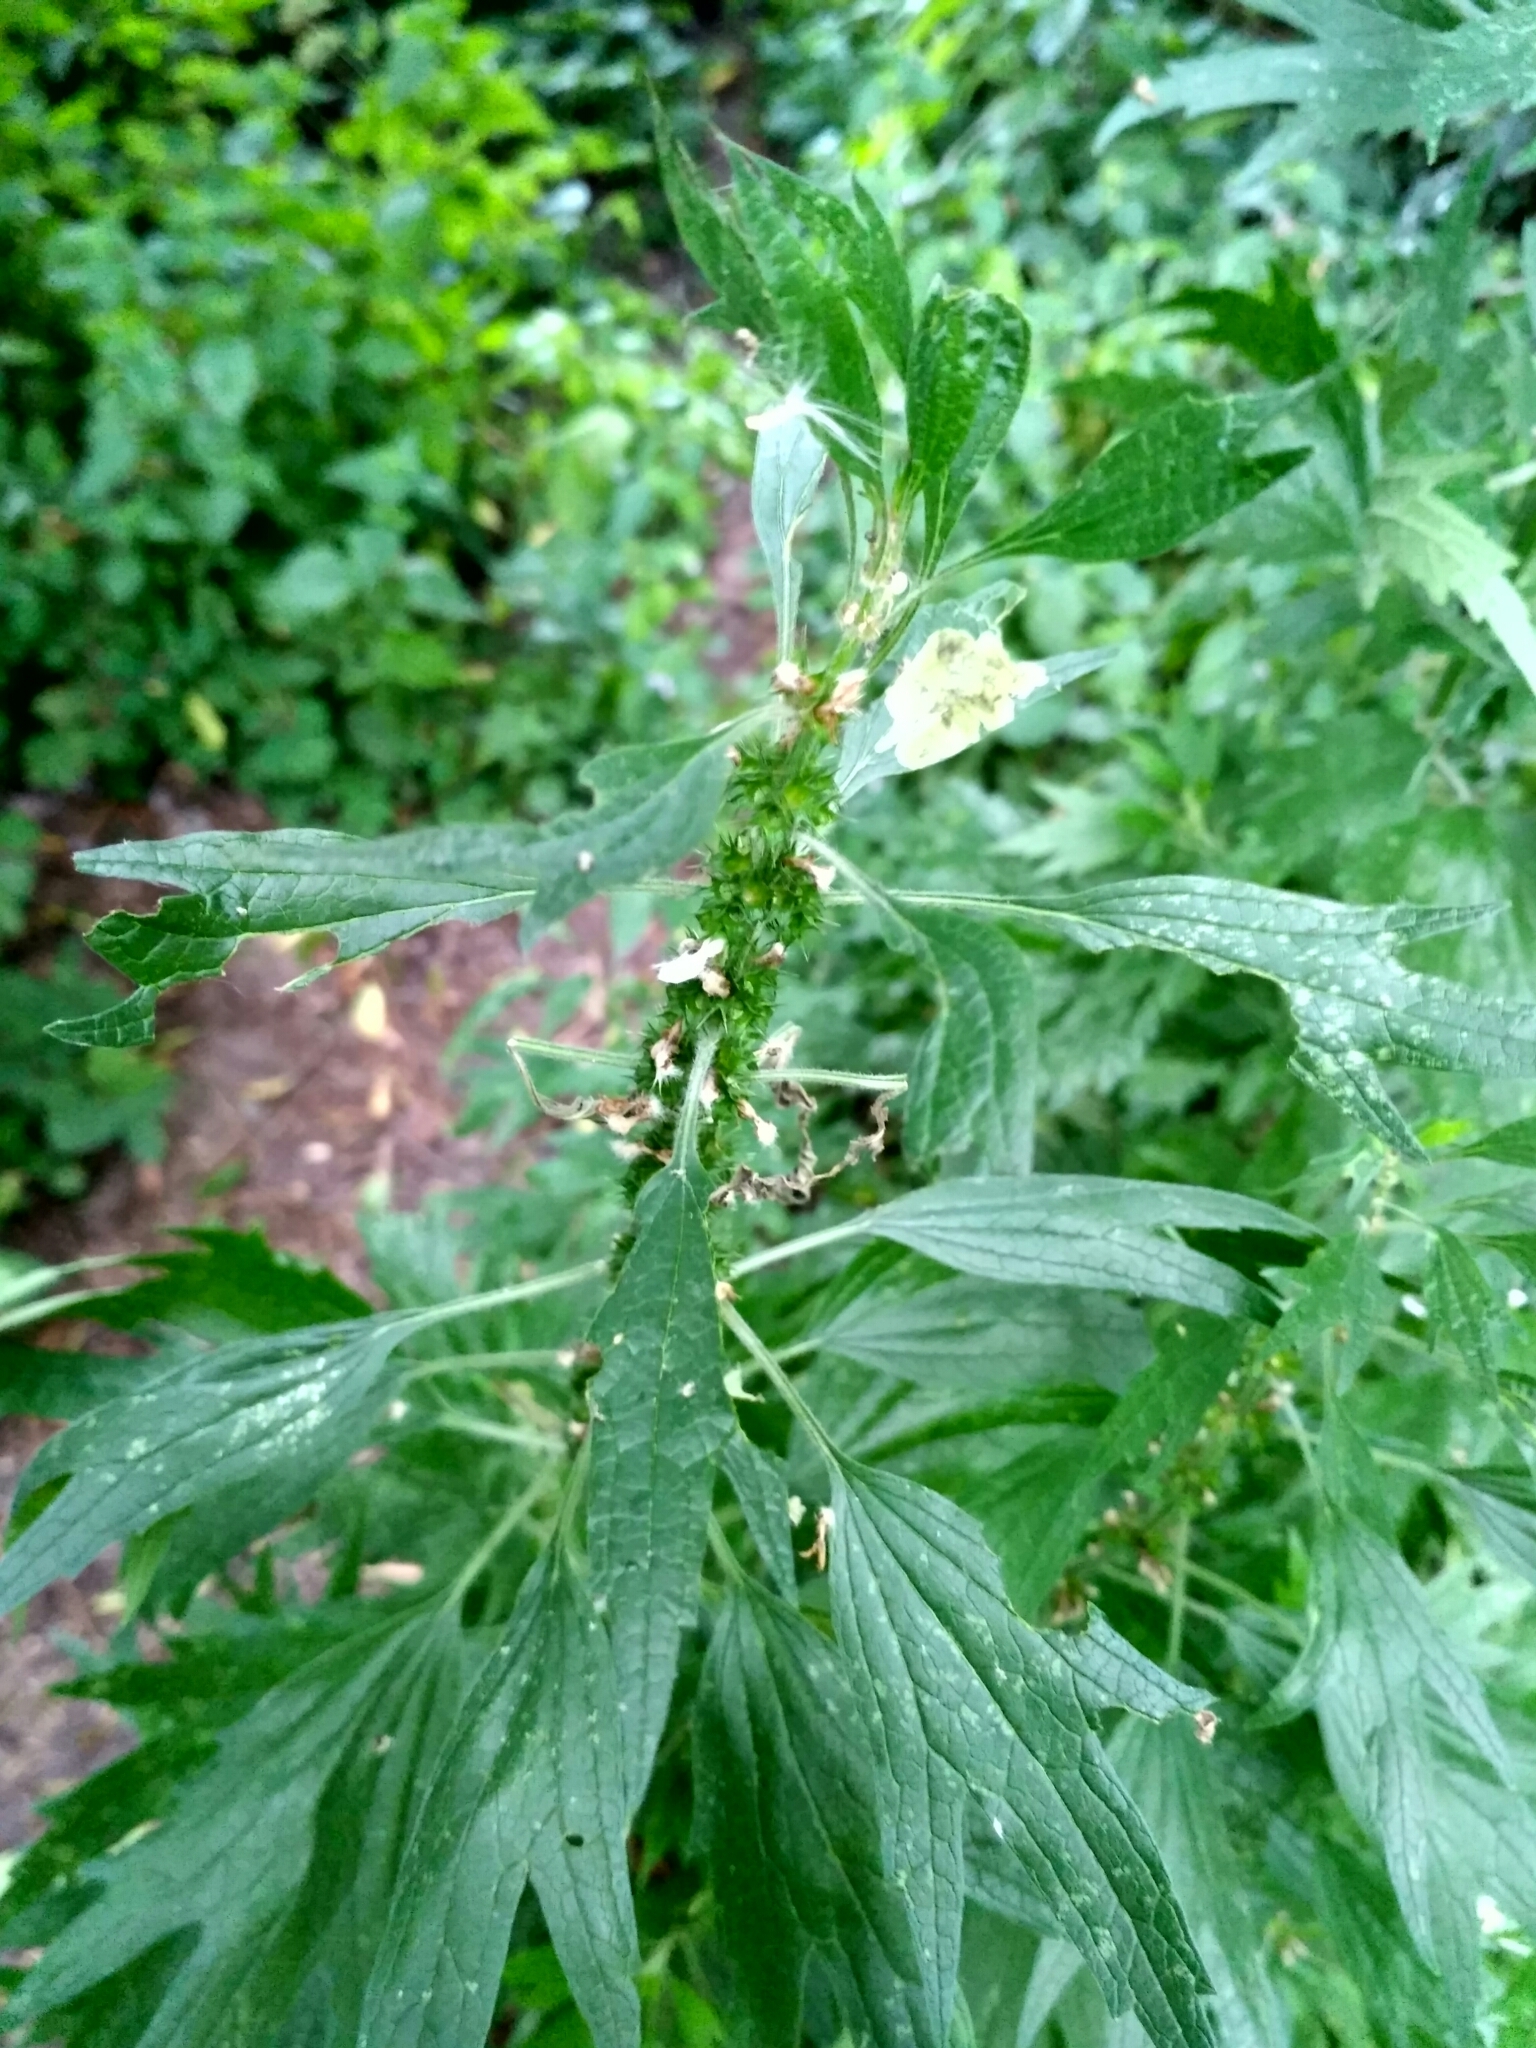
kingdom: Plantae
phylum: Tracheophyta
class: Magnoliopsida
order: Lamiales
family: Lamiaceae
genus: Leonurus
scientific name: Leonurus cardiaca
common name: Motherwort
